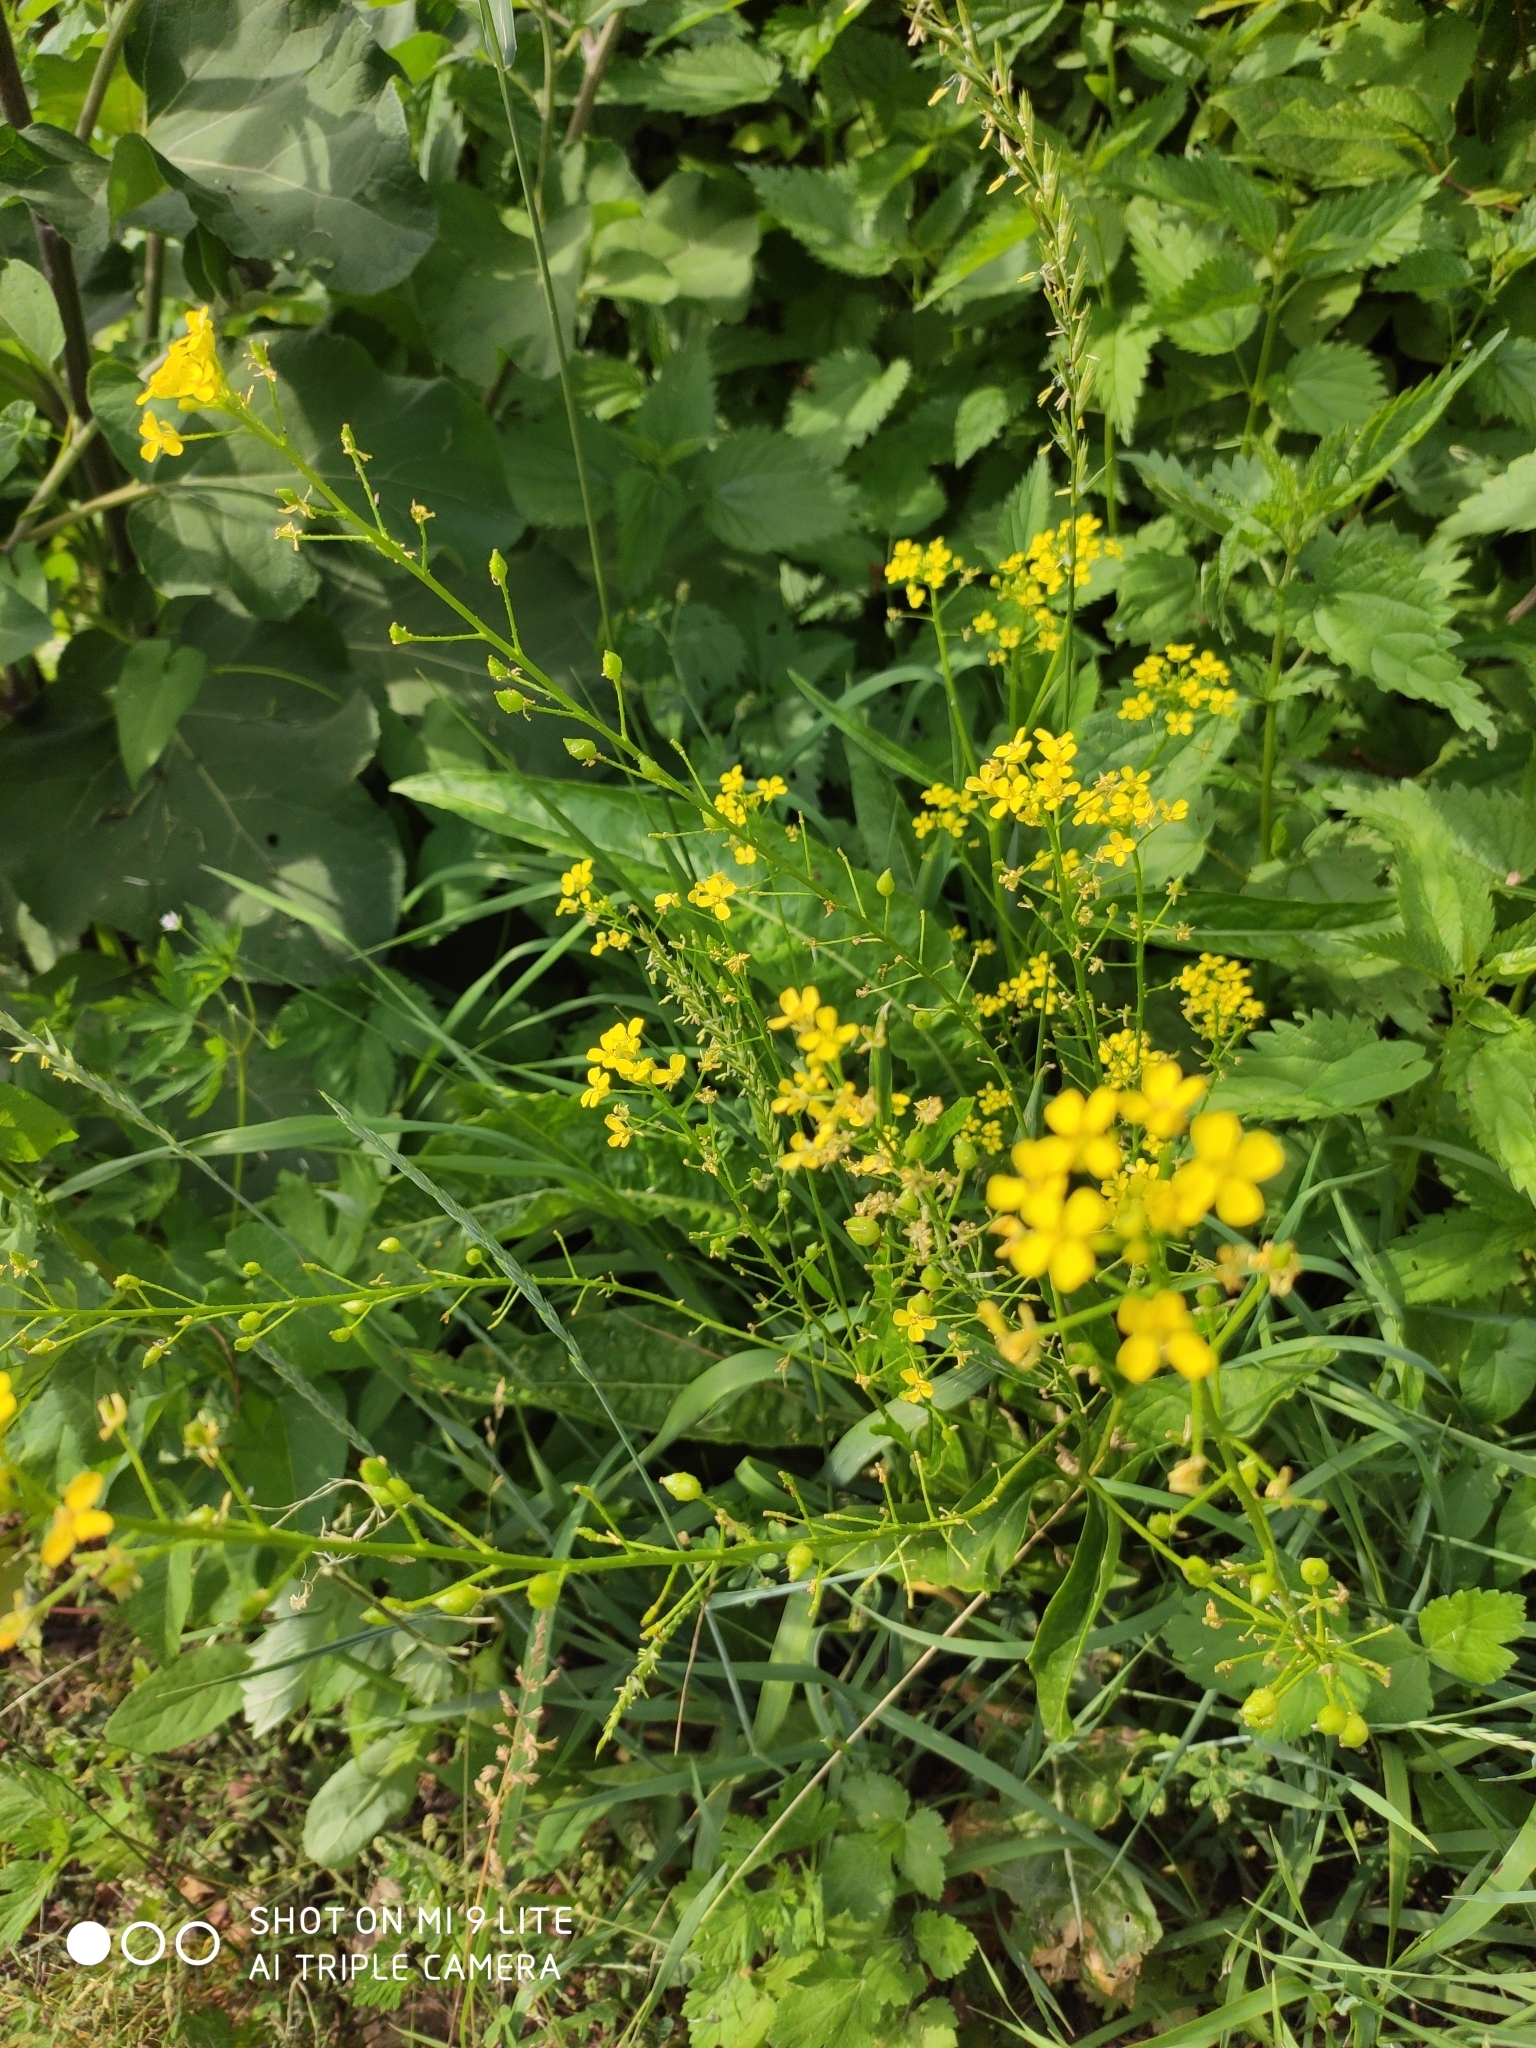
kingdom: Plantae
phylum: Tracheophyta
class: Magnoliopsida
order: Brassicales
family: Brassicaceae
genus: Bunias
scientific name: Bunias orientalis
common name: Warty-cabbage
